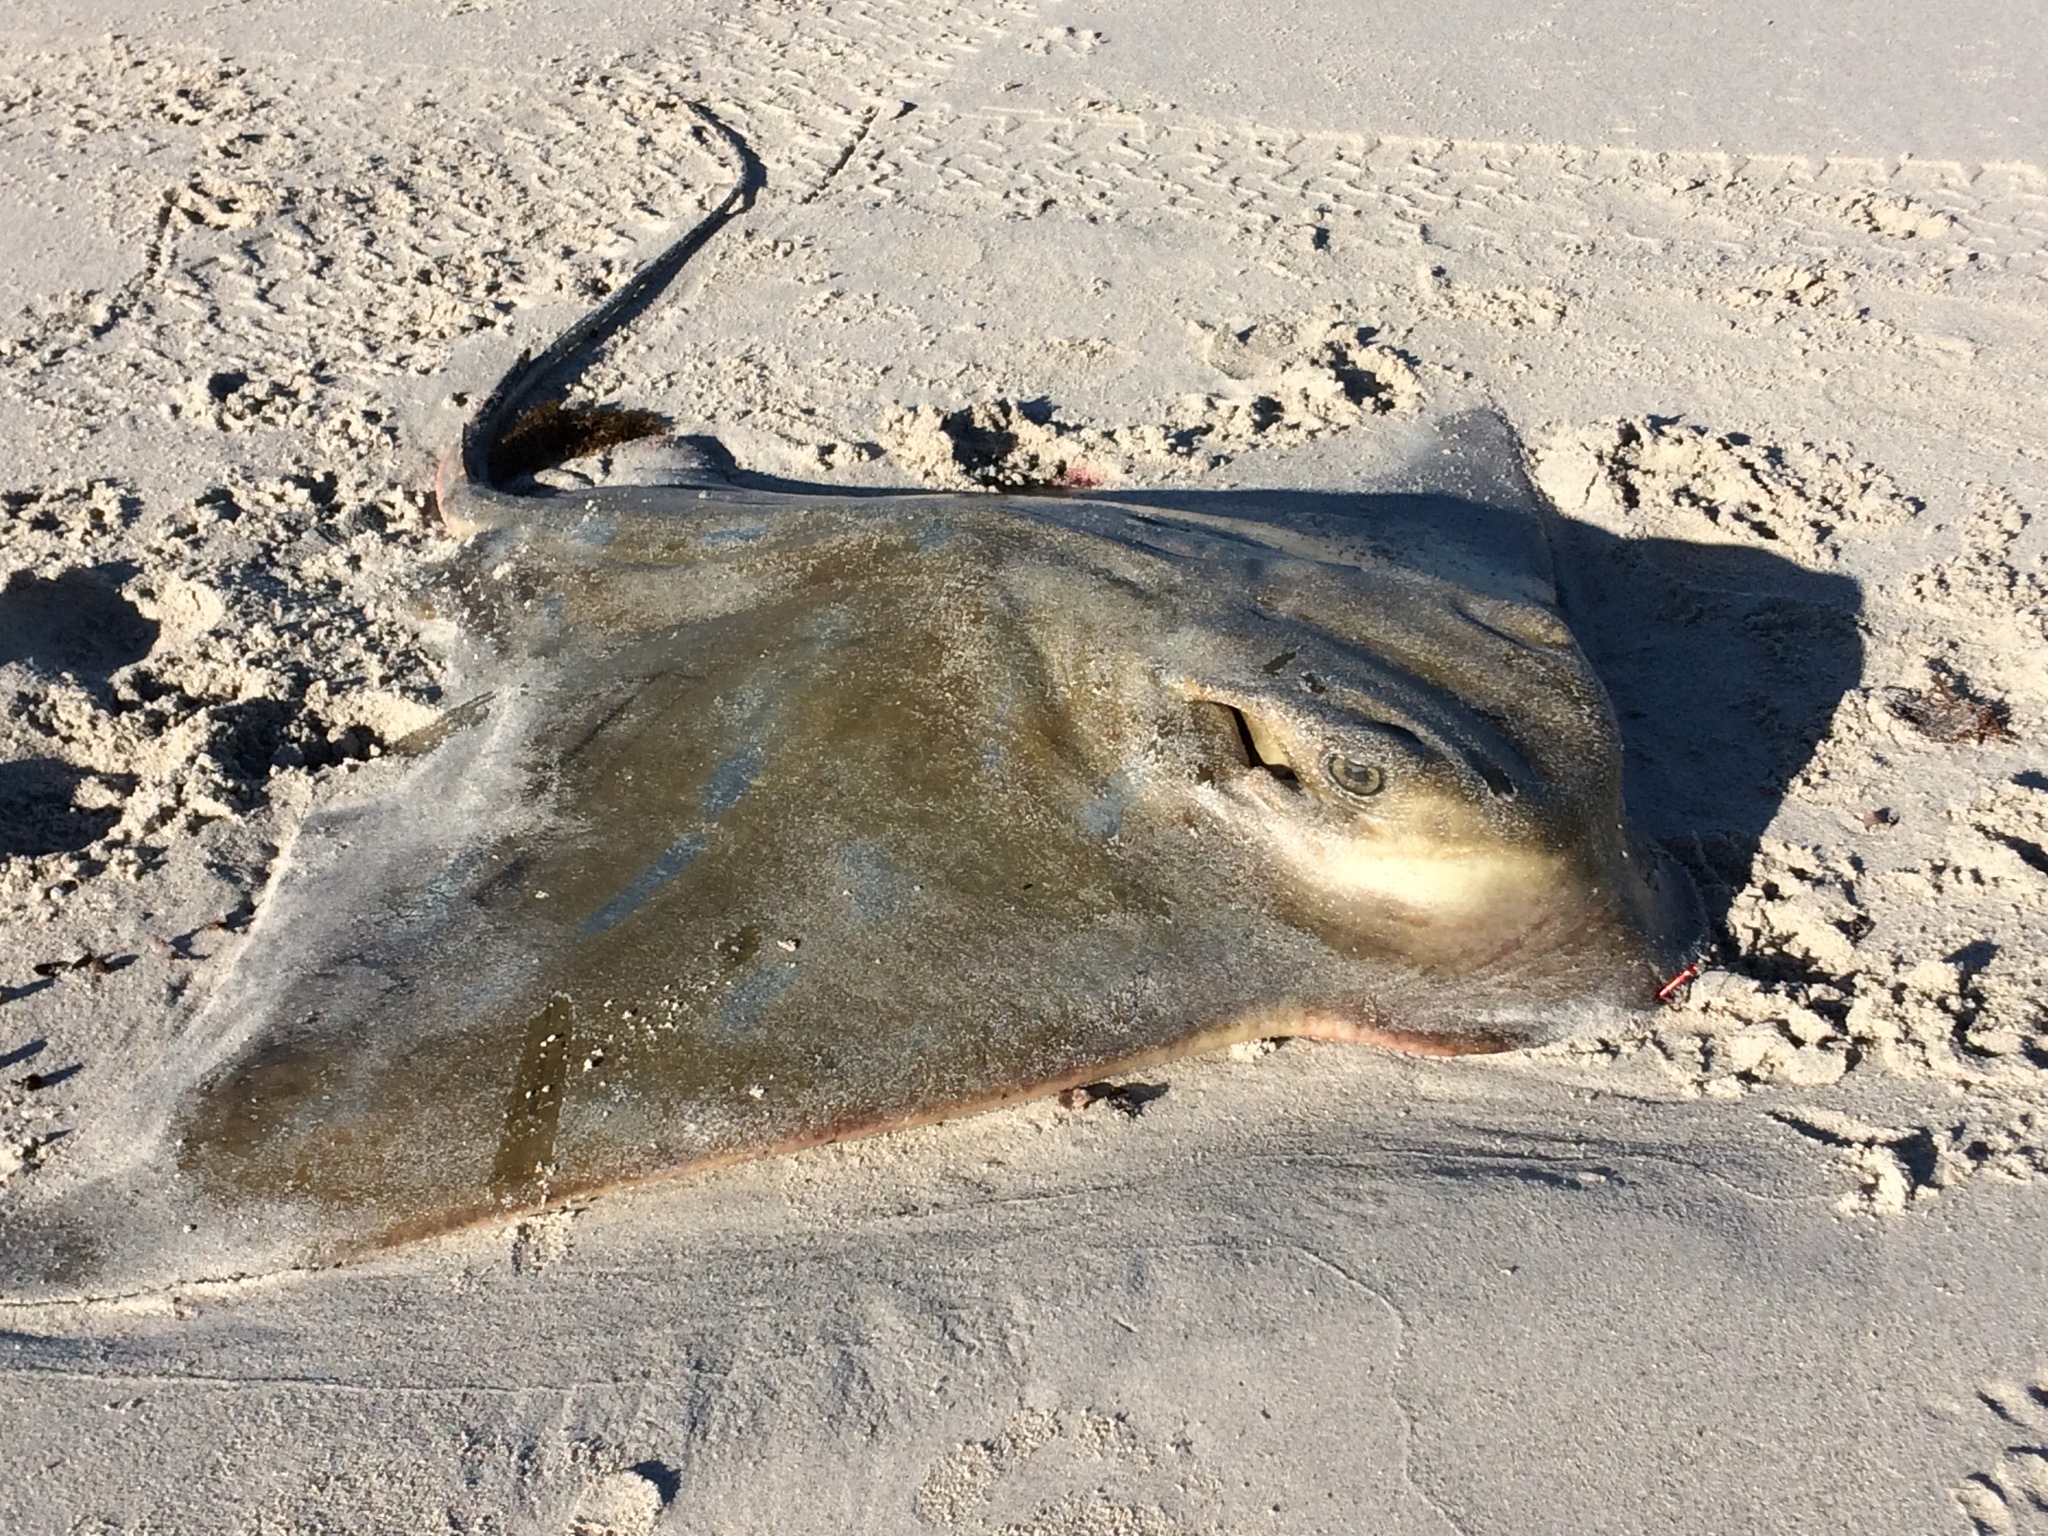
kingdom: Animalia
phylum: Chordata
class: Elasmobranchii
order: Myliobatiformes
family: Myliobatidae
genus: Myliobatis
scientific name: Myliobatis tenuicaudatus
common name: Eagle ray
